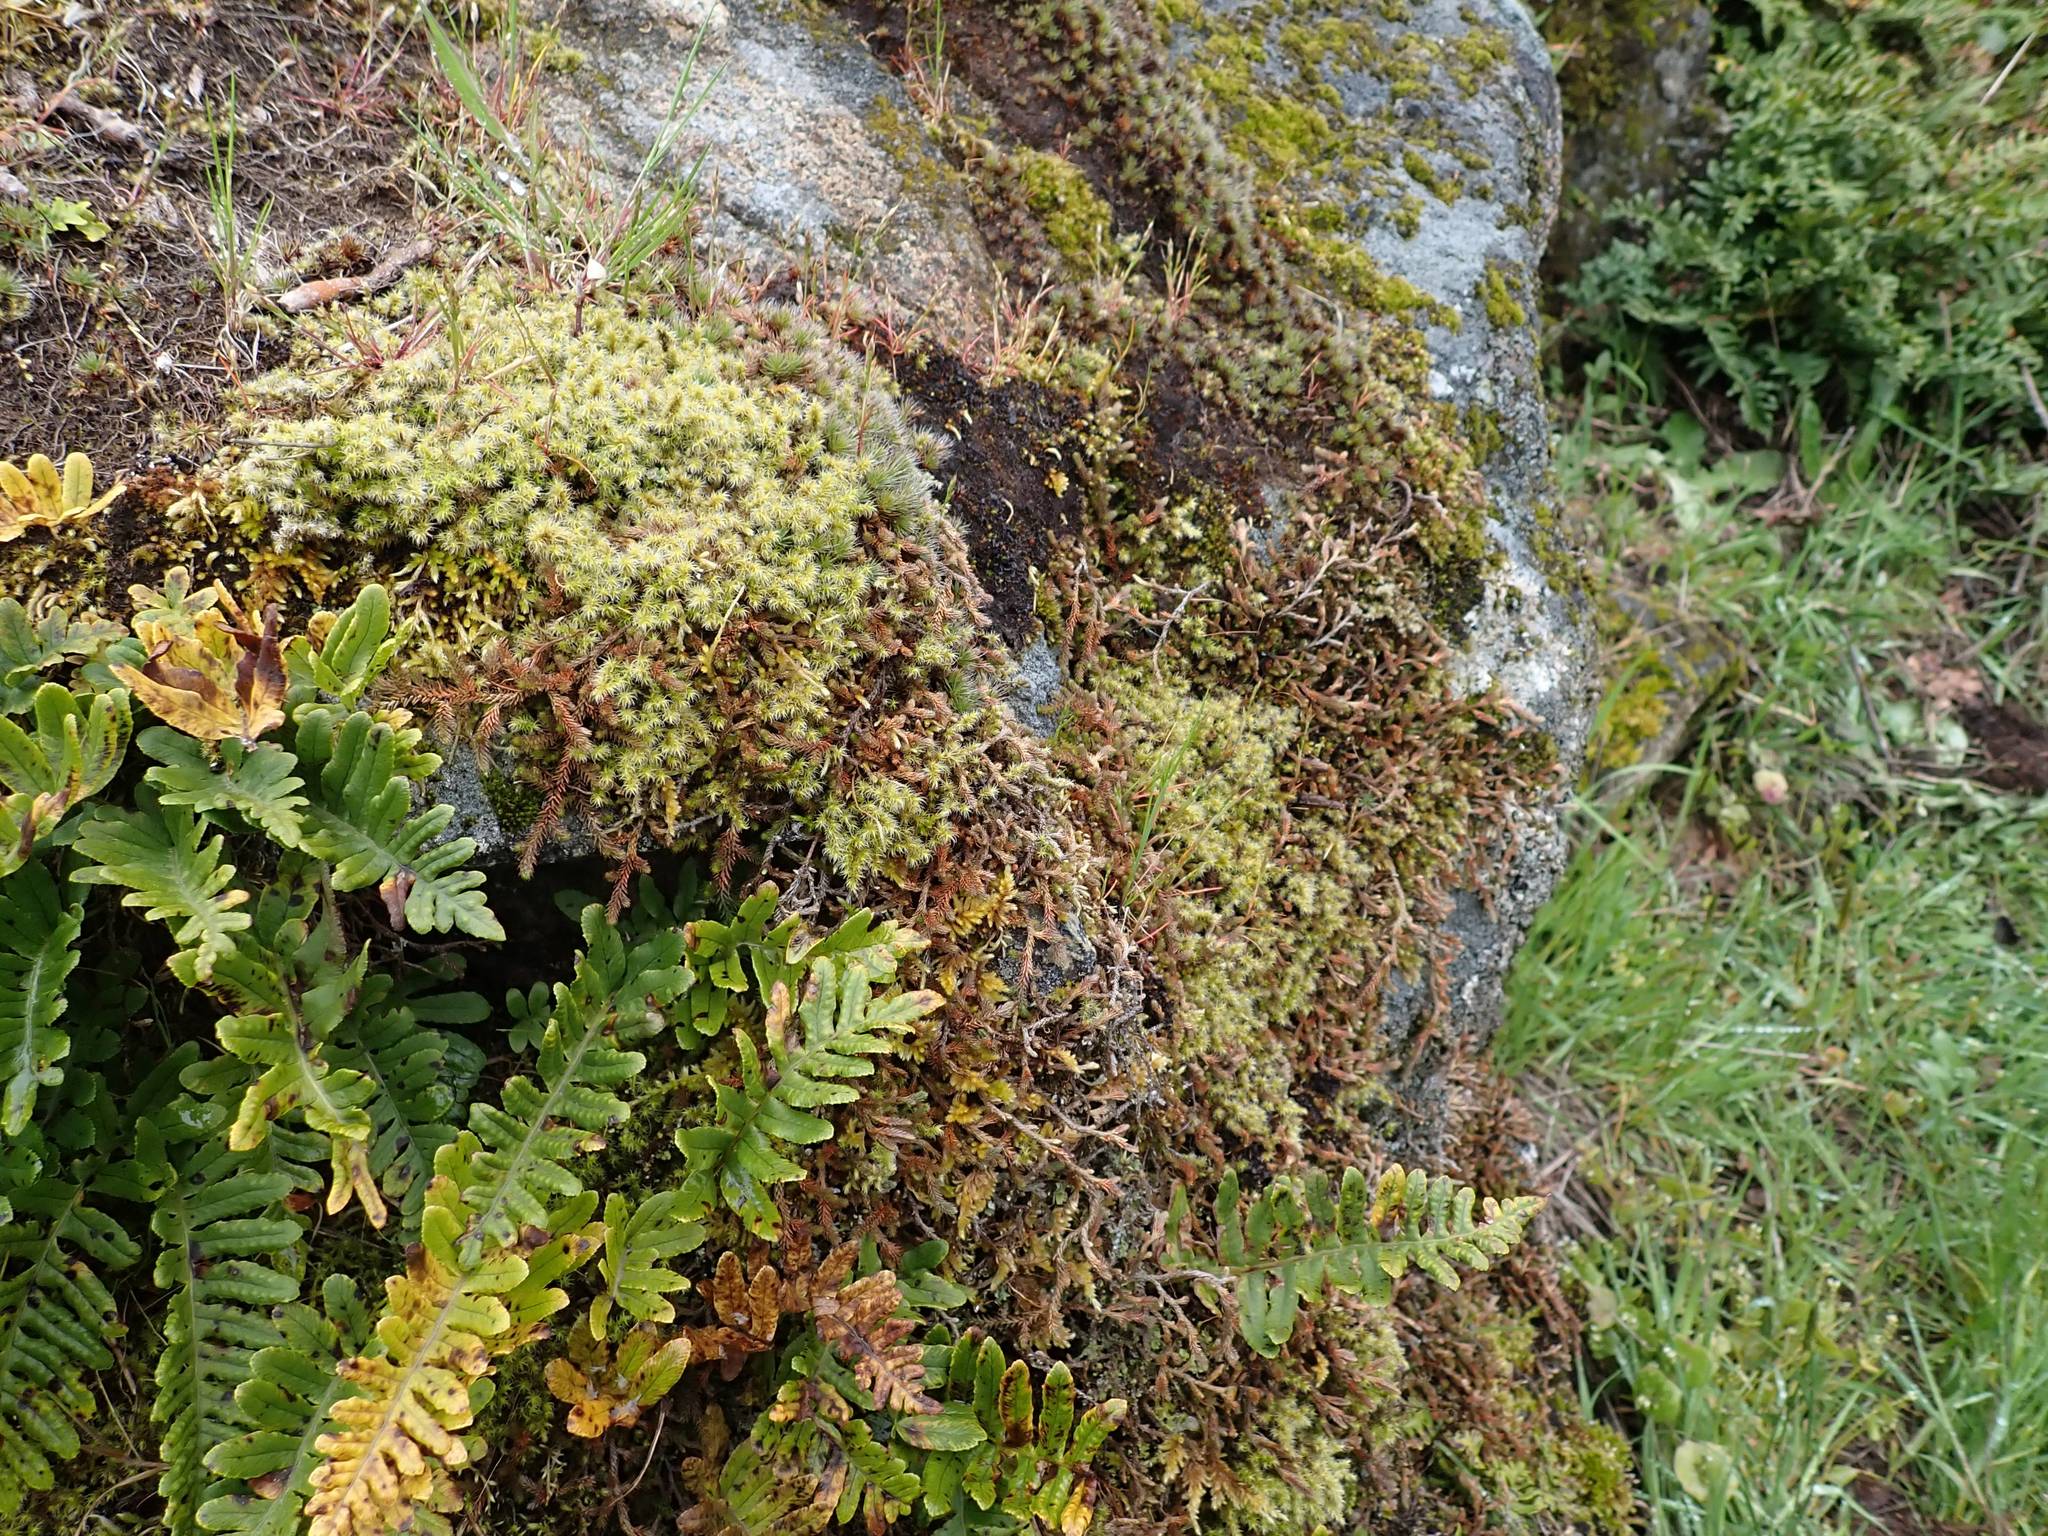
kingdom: Plantae
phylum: Bryophyta
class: Bryopsida
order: Grimmiales
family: Grimmiaceae
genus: Niphotrichum
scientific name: Niphotrichum elongatum
